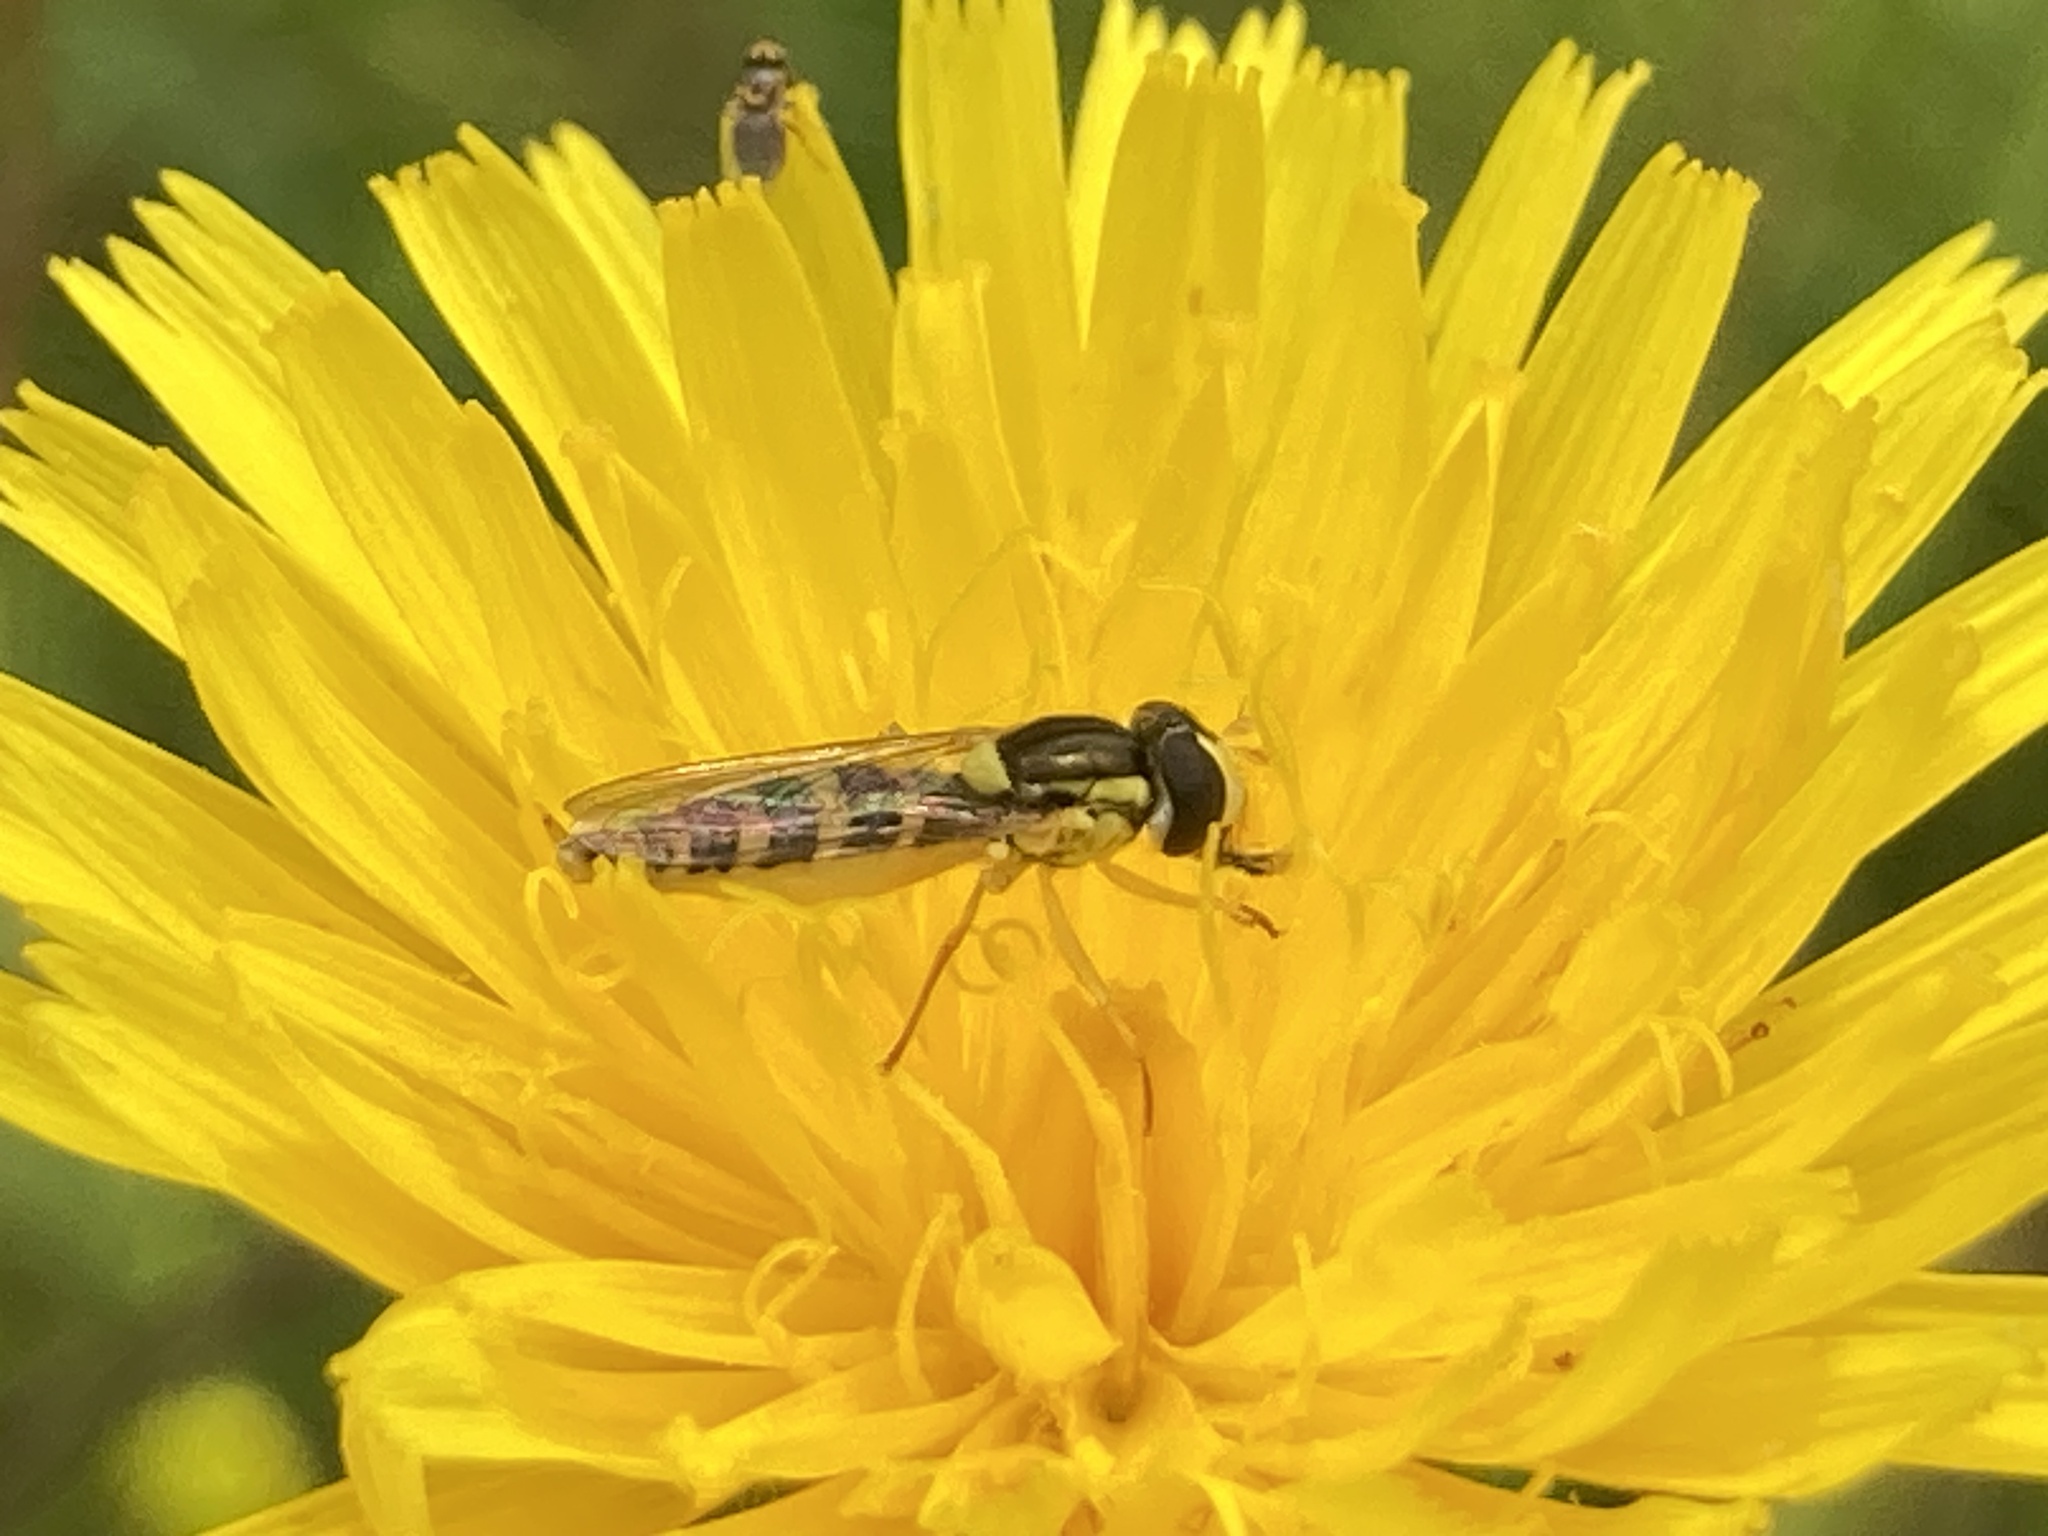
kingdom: Animalia
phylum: Arthropoda
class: Insecta
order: Diptera
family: Syrphidae
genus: Sphaerophoria
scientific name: Sphaerophoria
